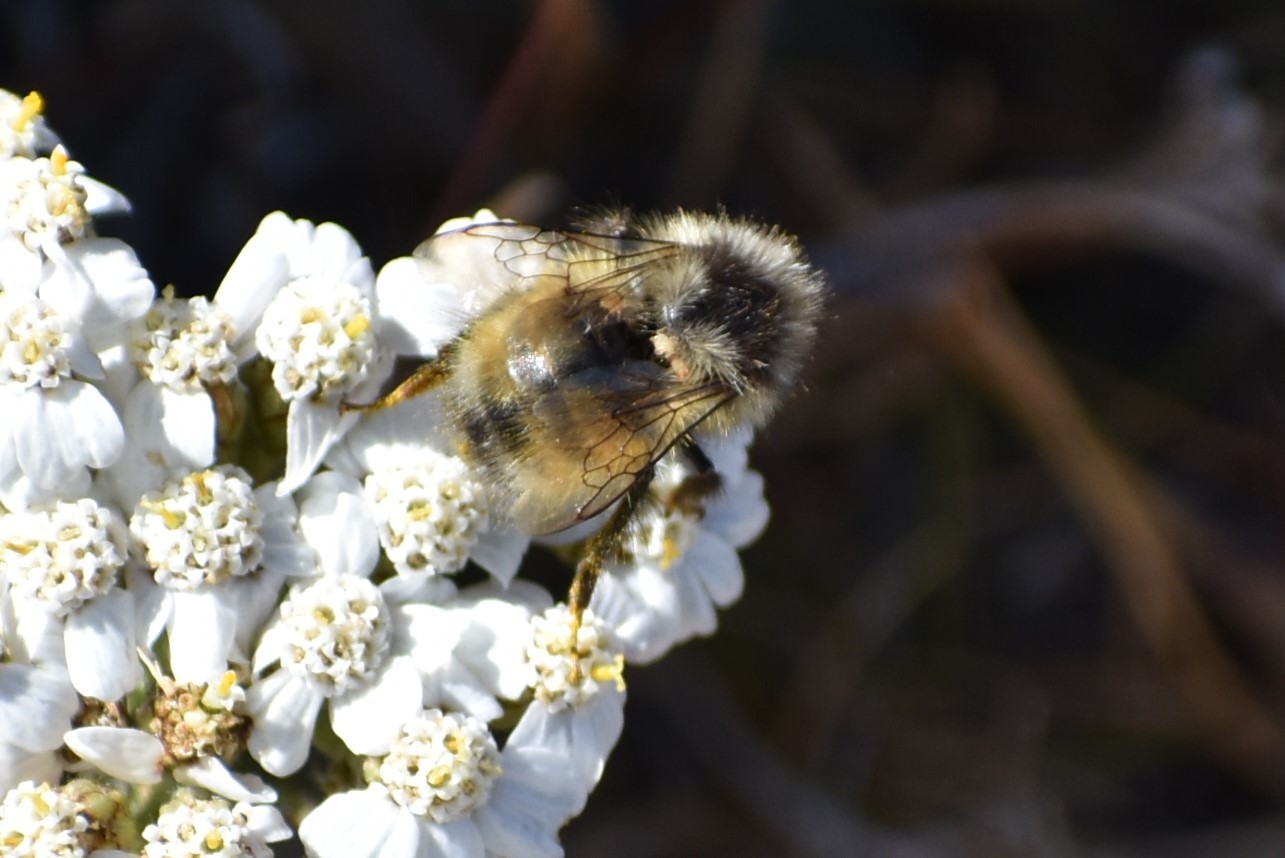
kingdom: Animalia
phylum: Arthropoda
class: Insecta
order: Hymenoptera
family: Apidae
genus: Bombus
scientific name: Bombus vancouverensis
